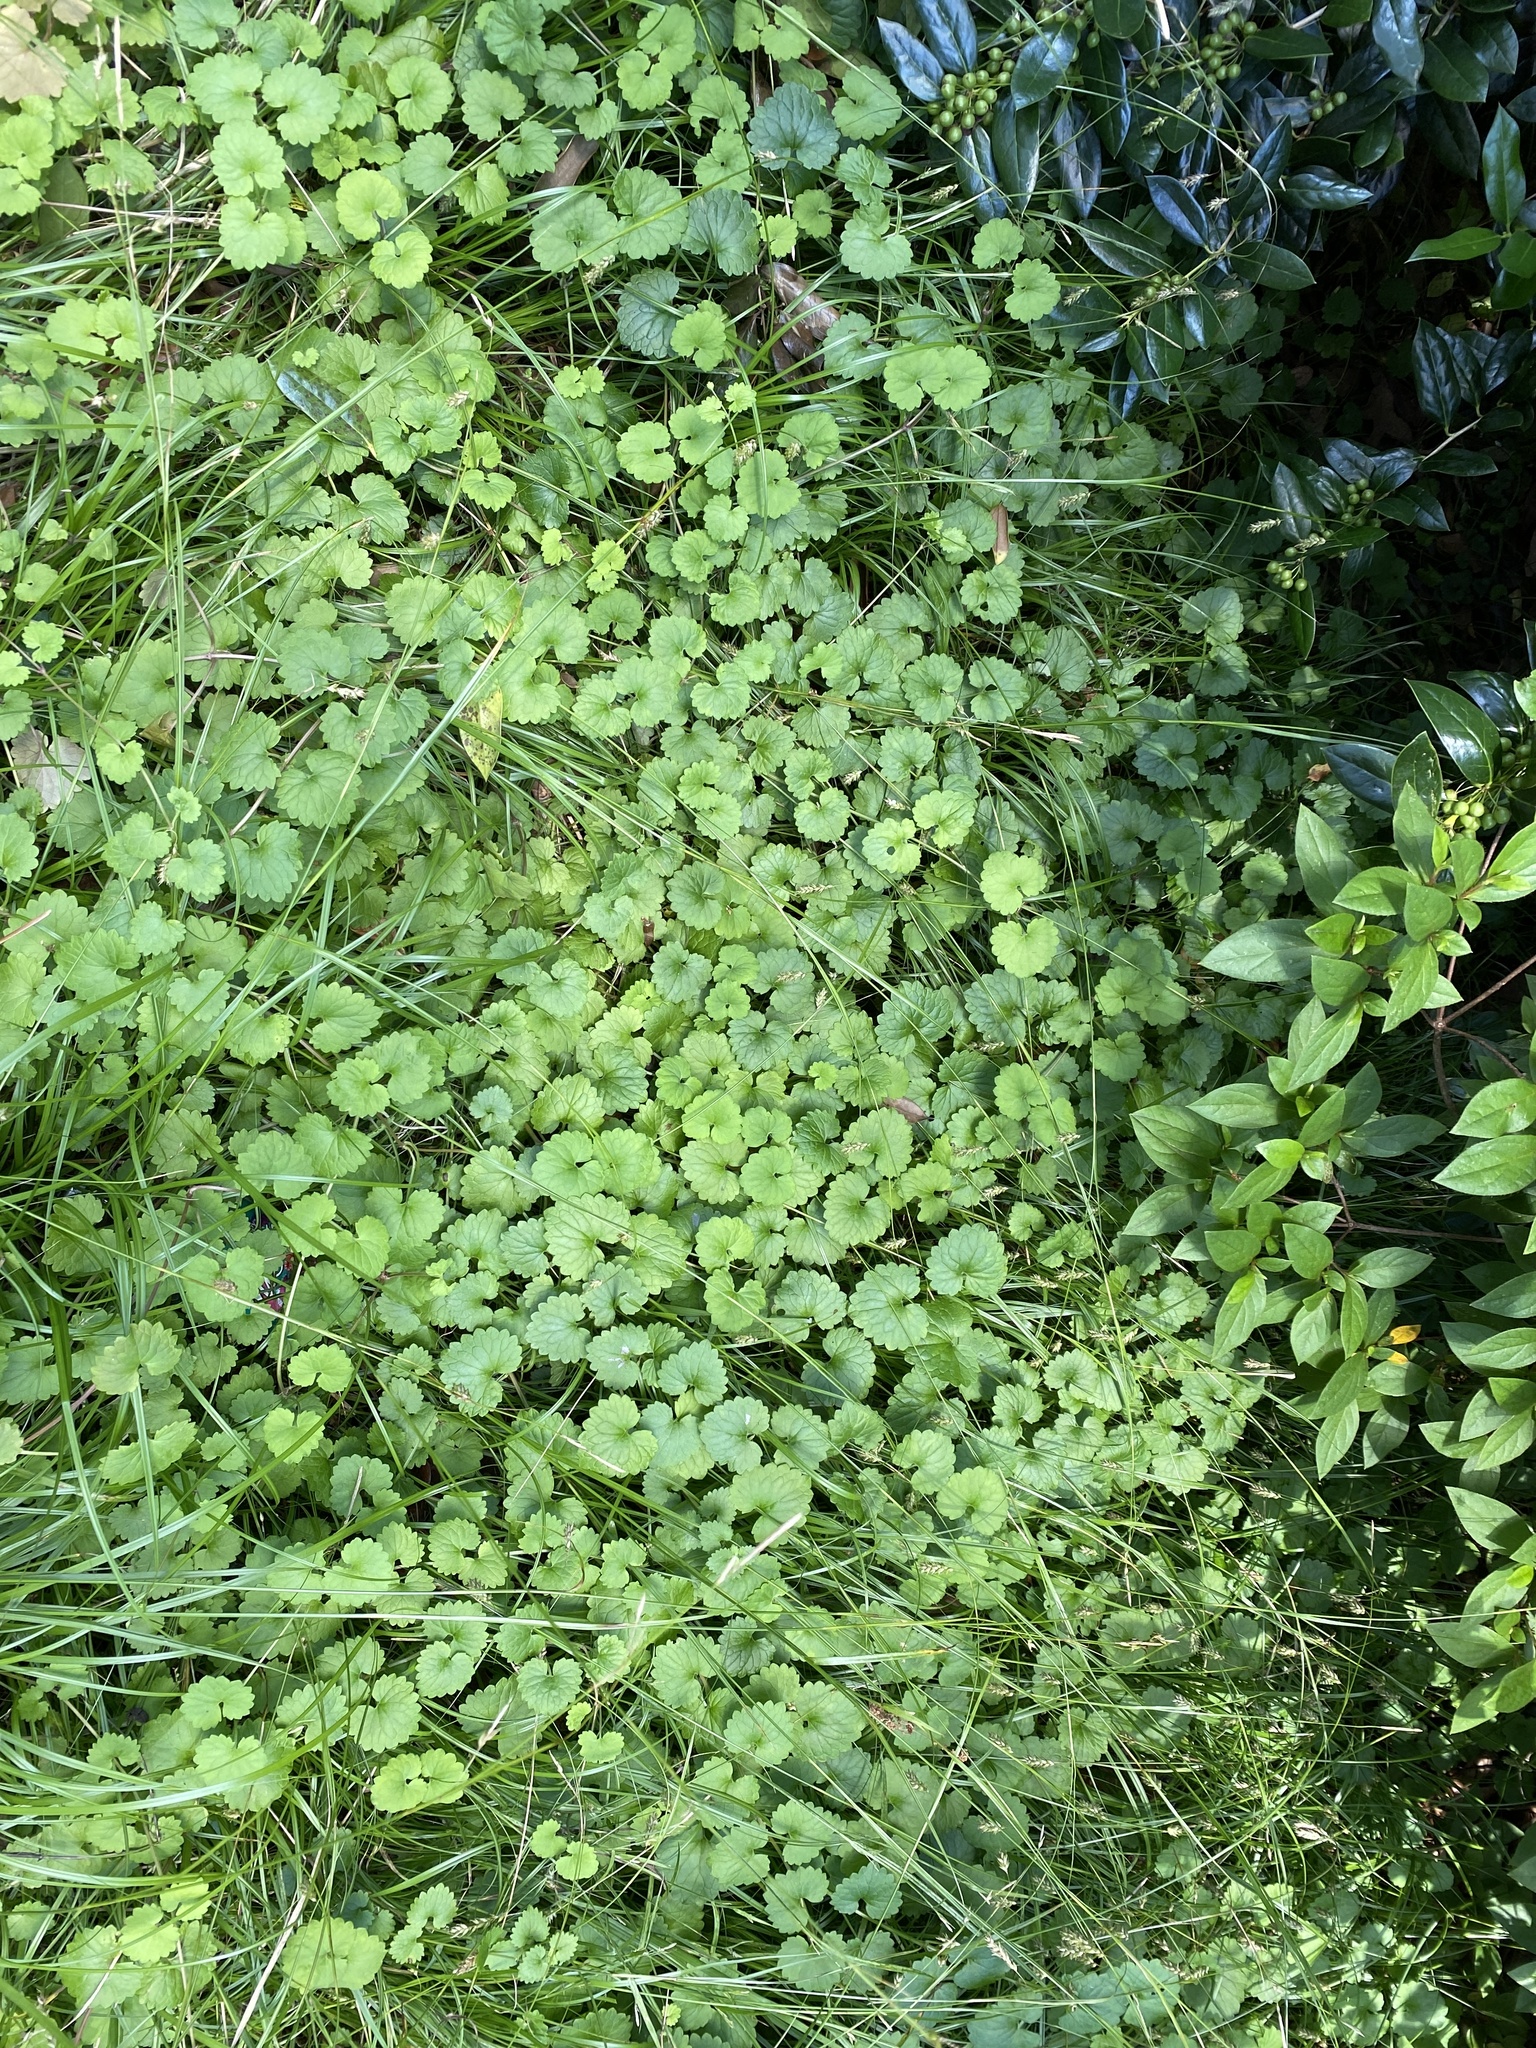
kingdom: Plantae
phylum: Tracheophyta
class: Magnoliopsida
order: Lamiales
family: Lamiaceae
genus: Glechoma
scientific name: Glechoma hederacea
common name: Ground ivy
